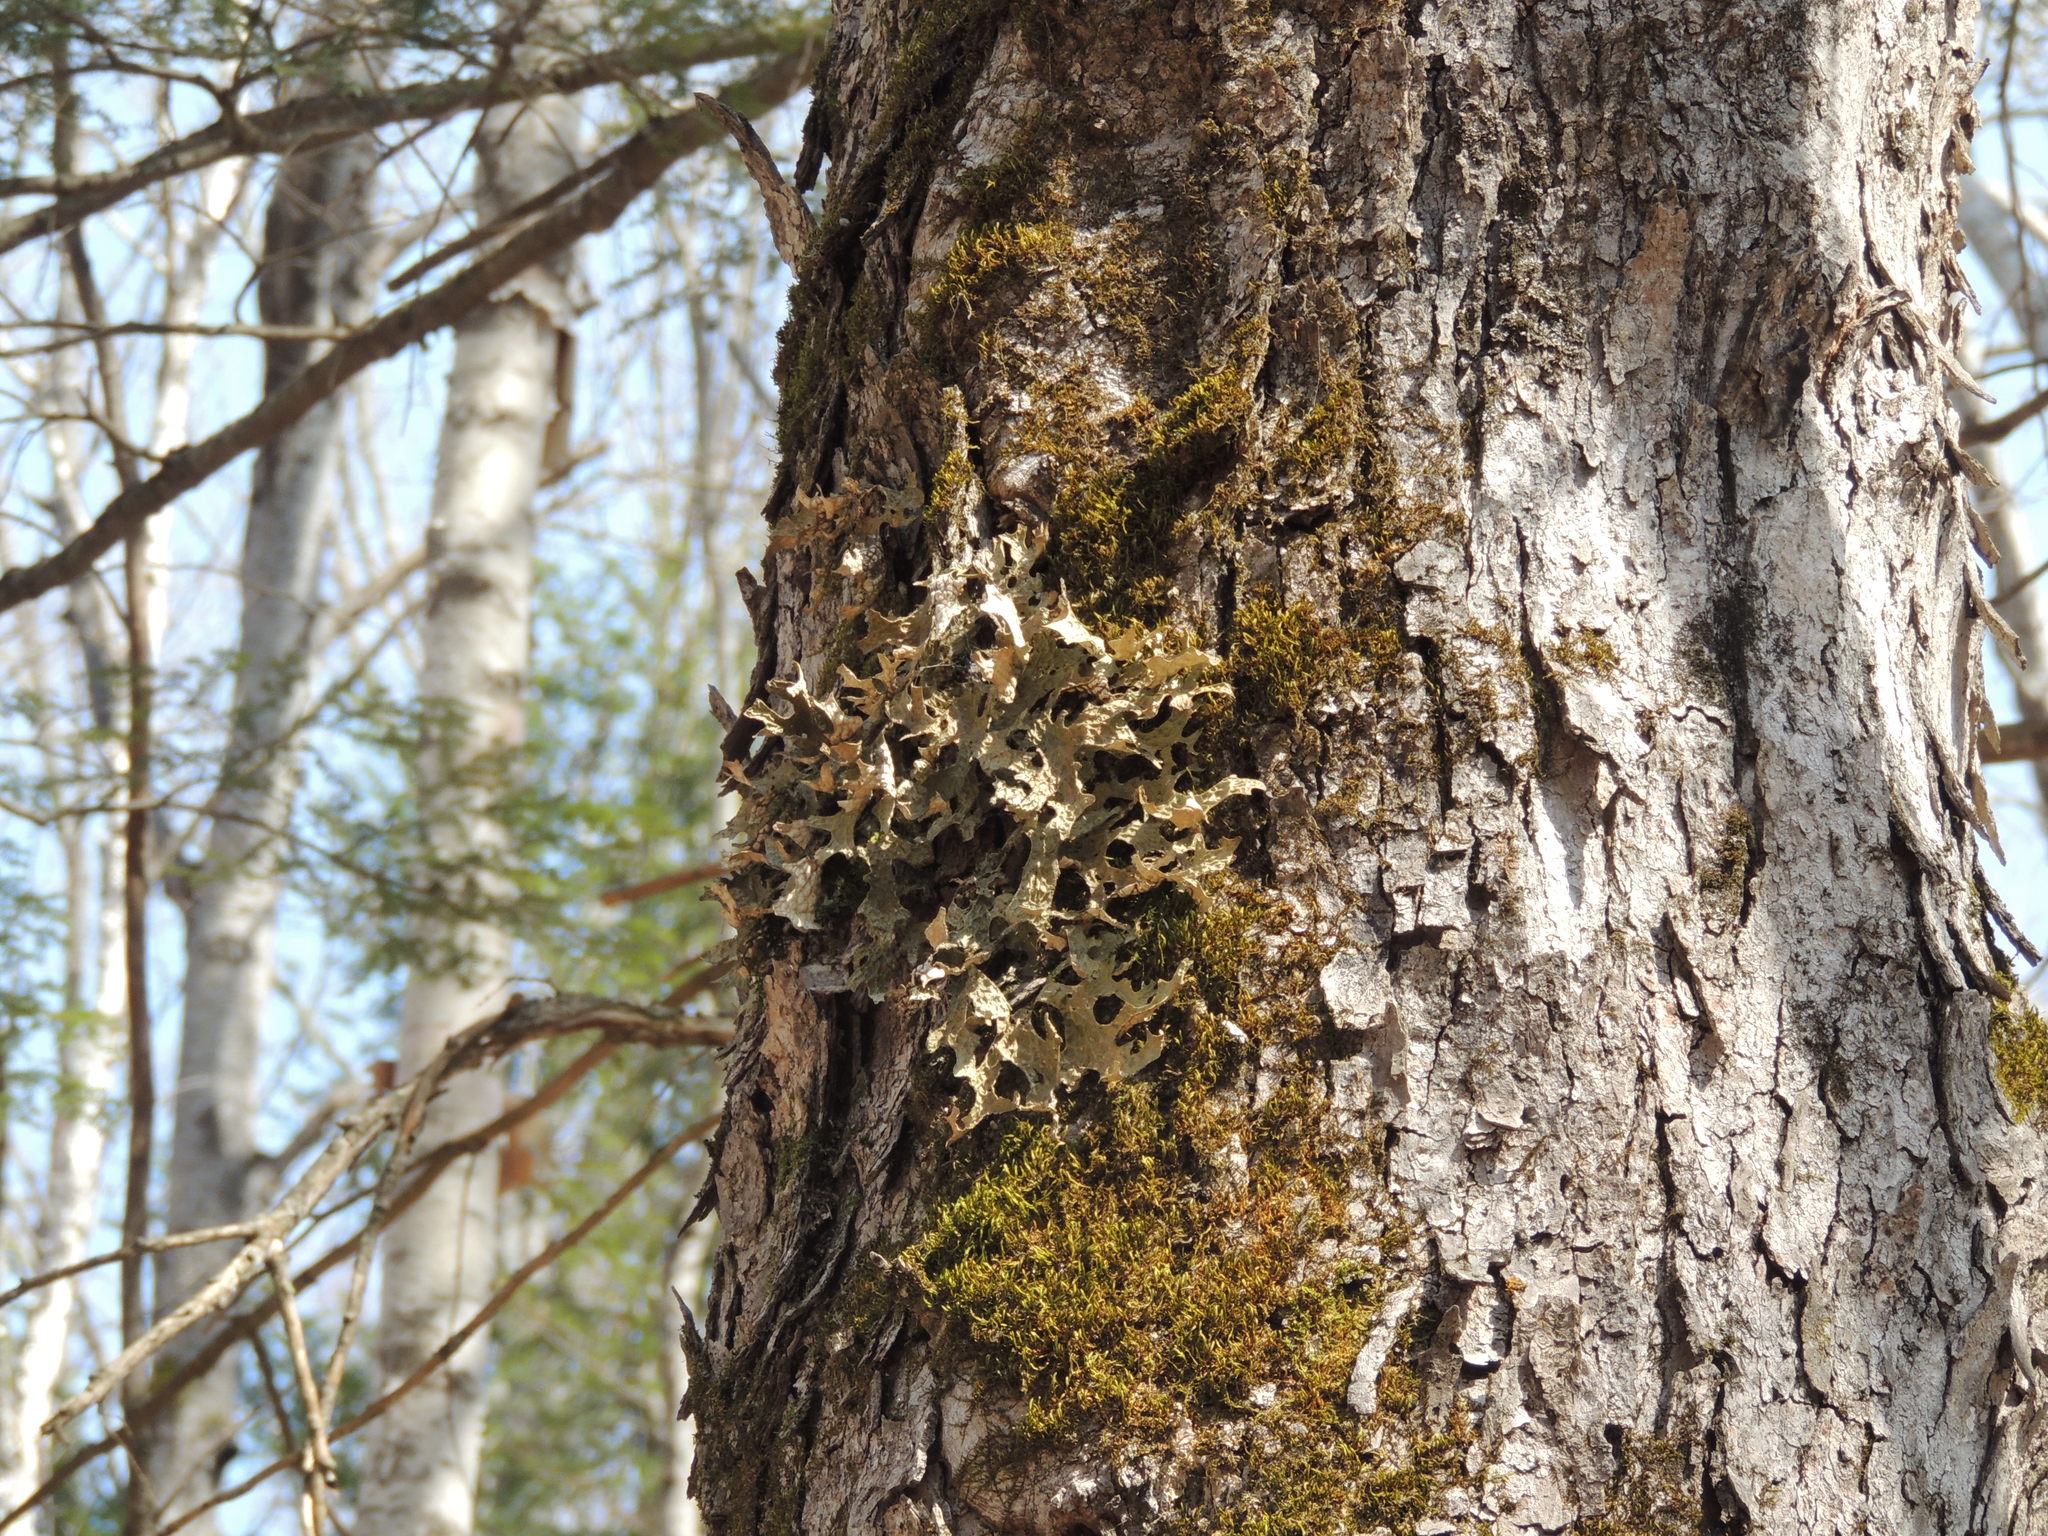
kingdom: Fungi
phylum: Ascomycota
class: Lecanoromycetes
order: Peltigerales
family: Lobariaceae
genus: Lobaria
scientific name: Lobaria pulmonaria
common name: Lungwort
